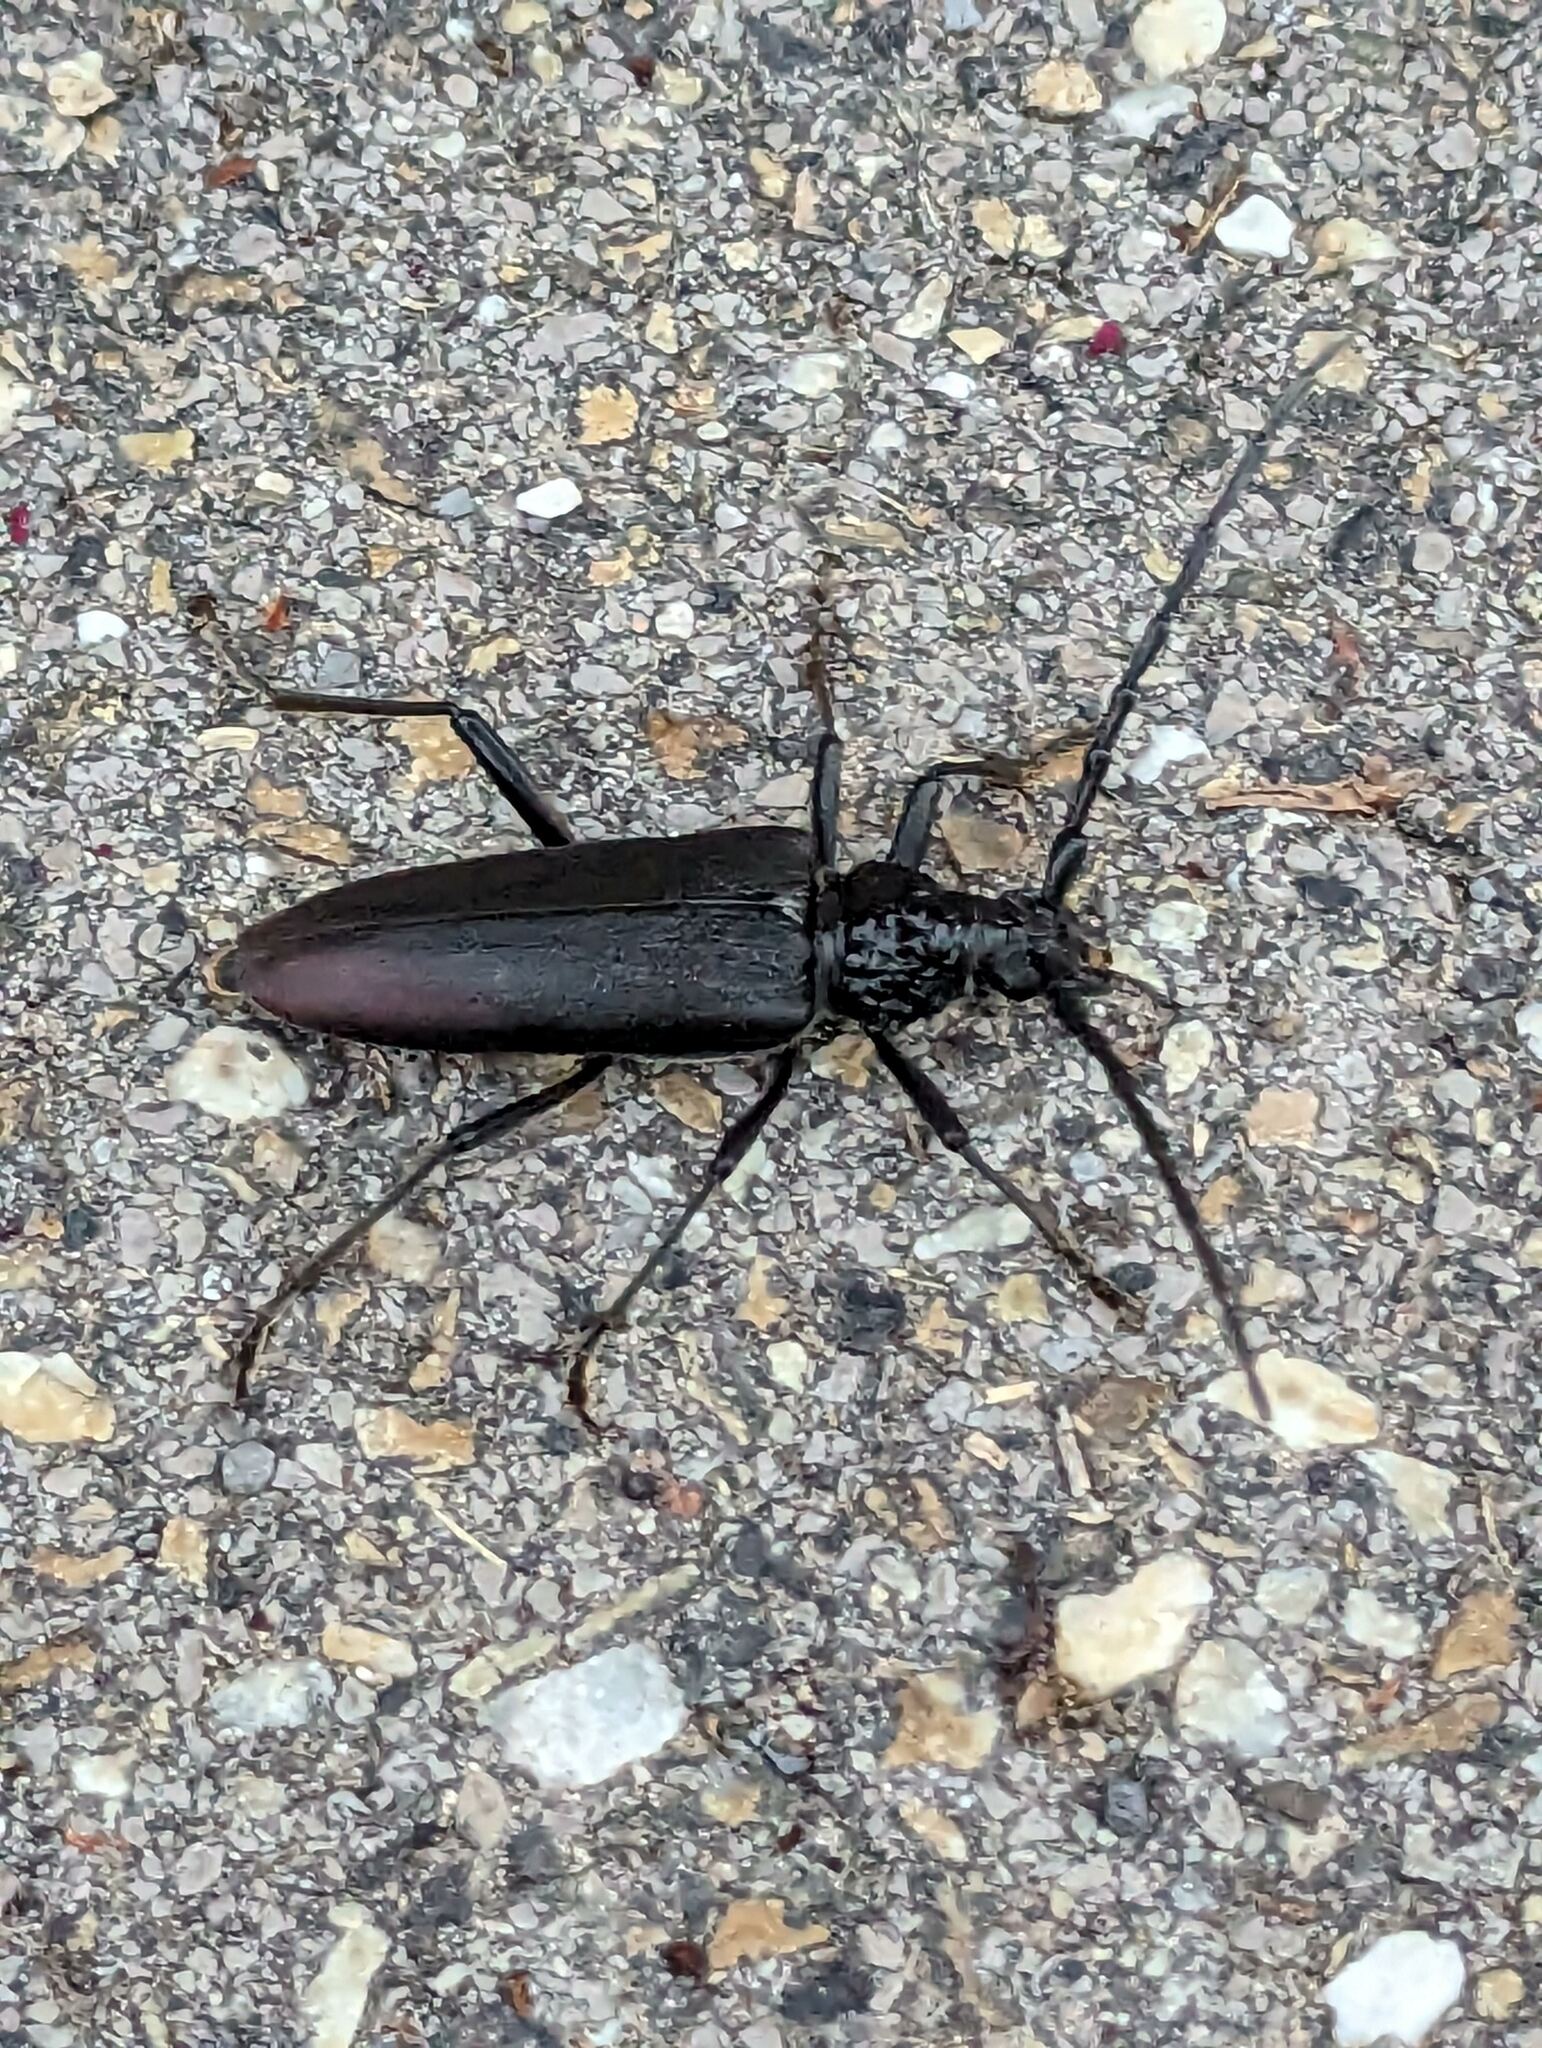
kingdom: Animalia
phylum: Arthropoda
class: Insecta
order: Coleoptera
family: Cerambycidae
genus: Cerambyx
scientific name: Cerambyx cerdo
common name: Cerambyx longicorn
